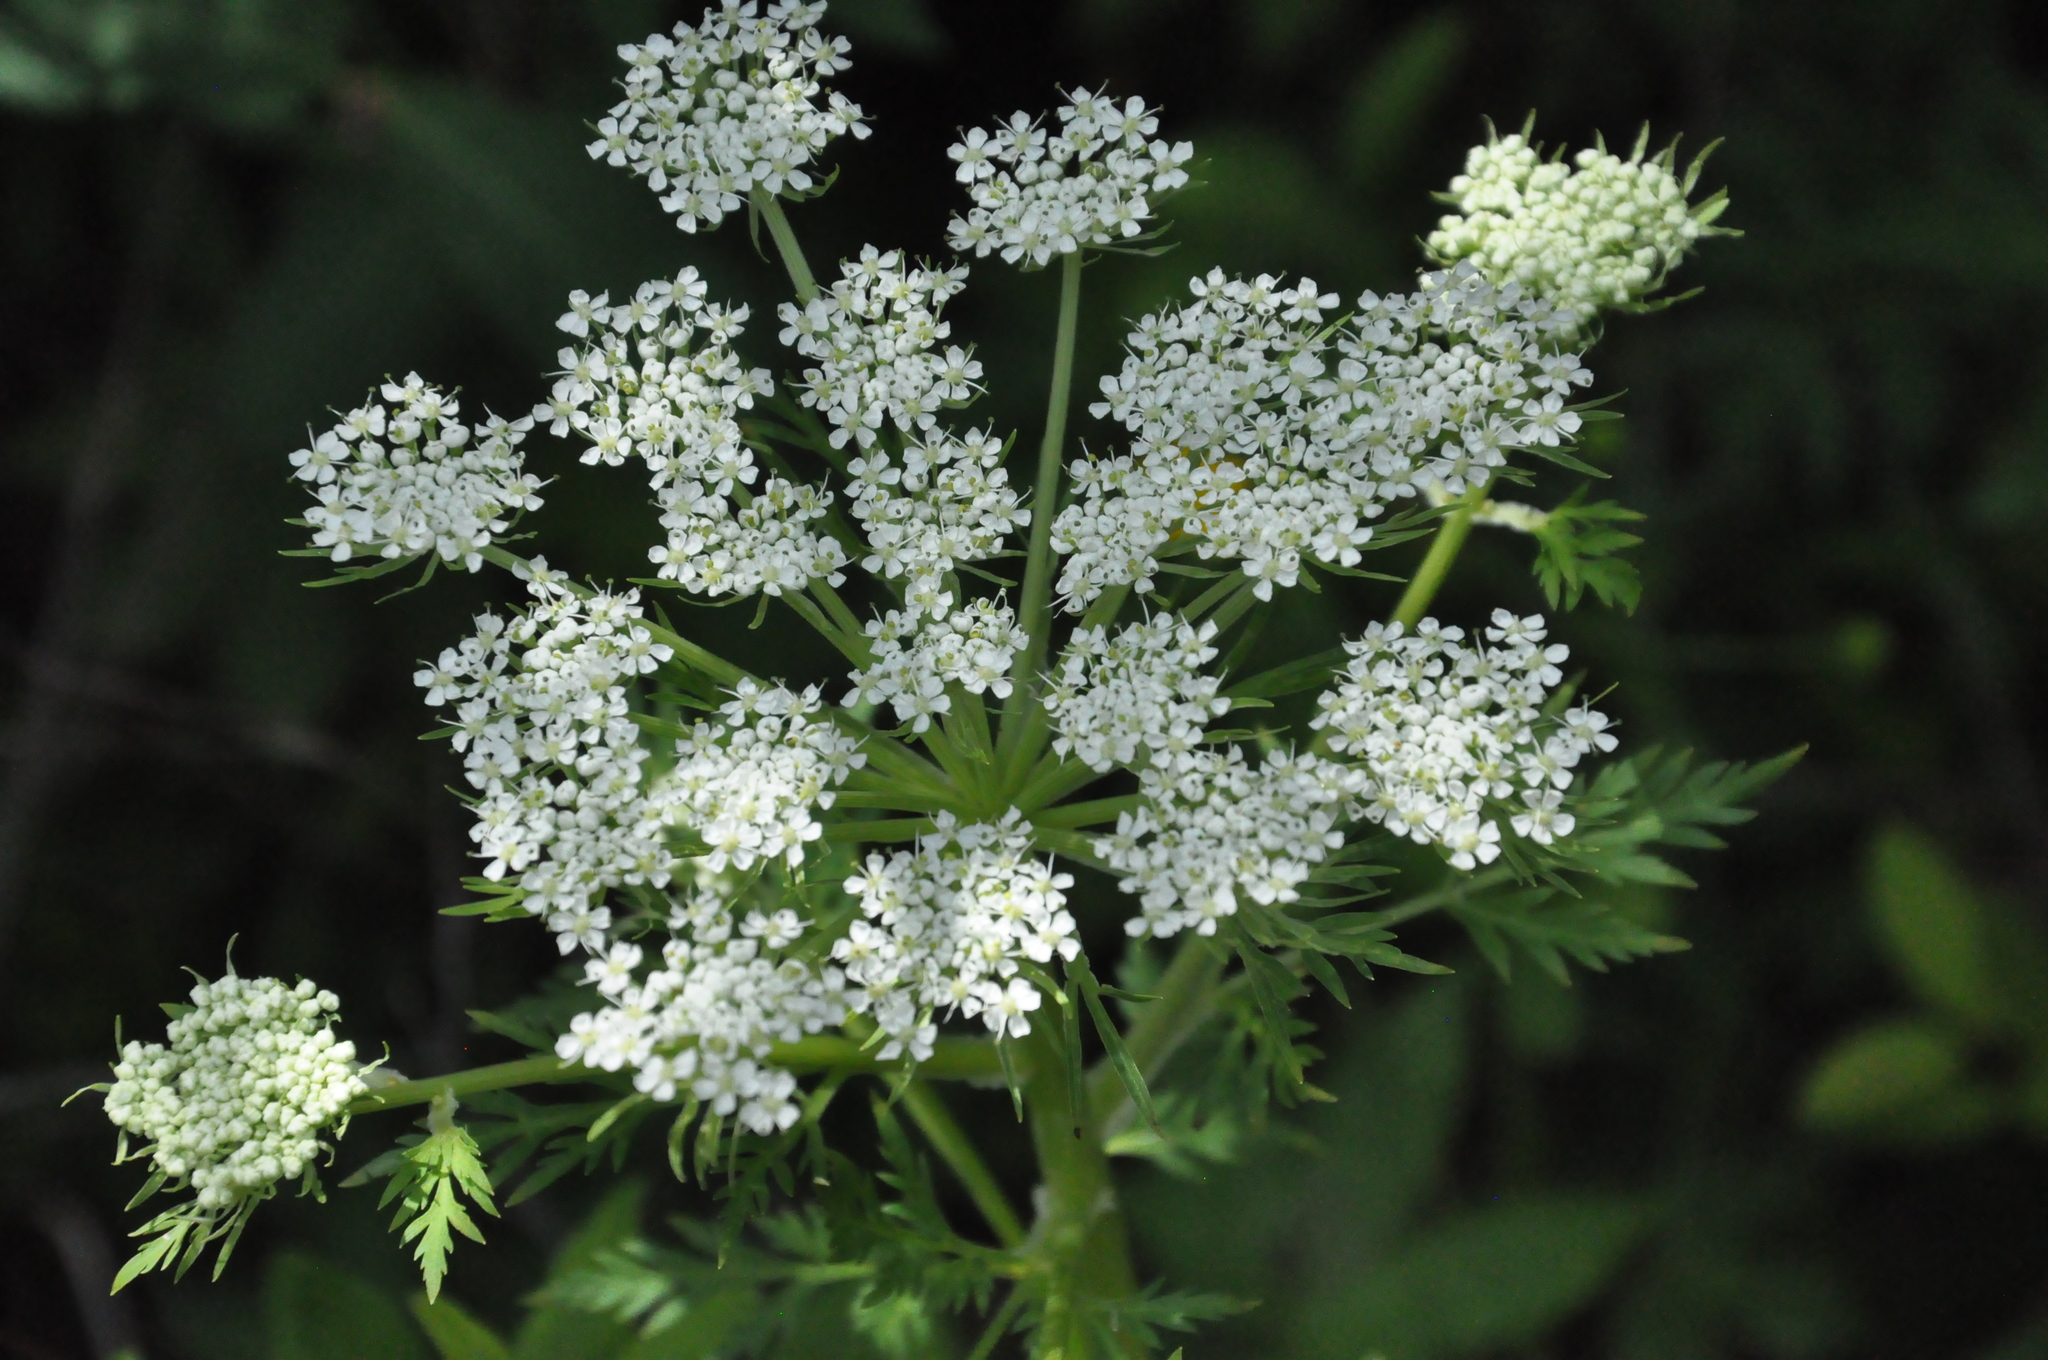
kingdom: Plantae
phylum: Tracheophyta
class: Magnoliopsida
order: Apiales
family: Apiaceae
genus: Pleurospermum
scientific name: Pleurospermum uralense
